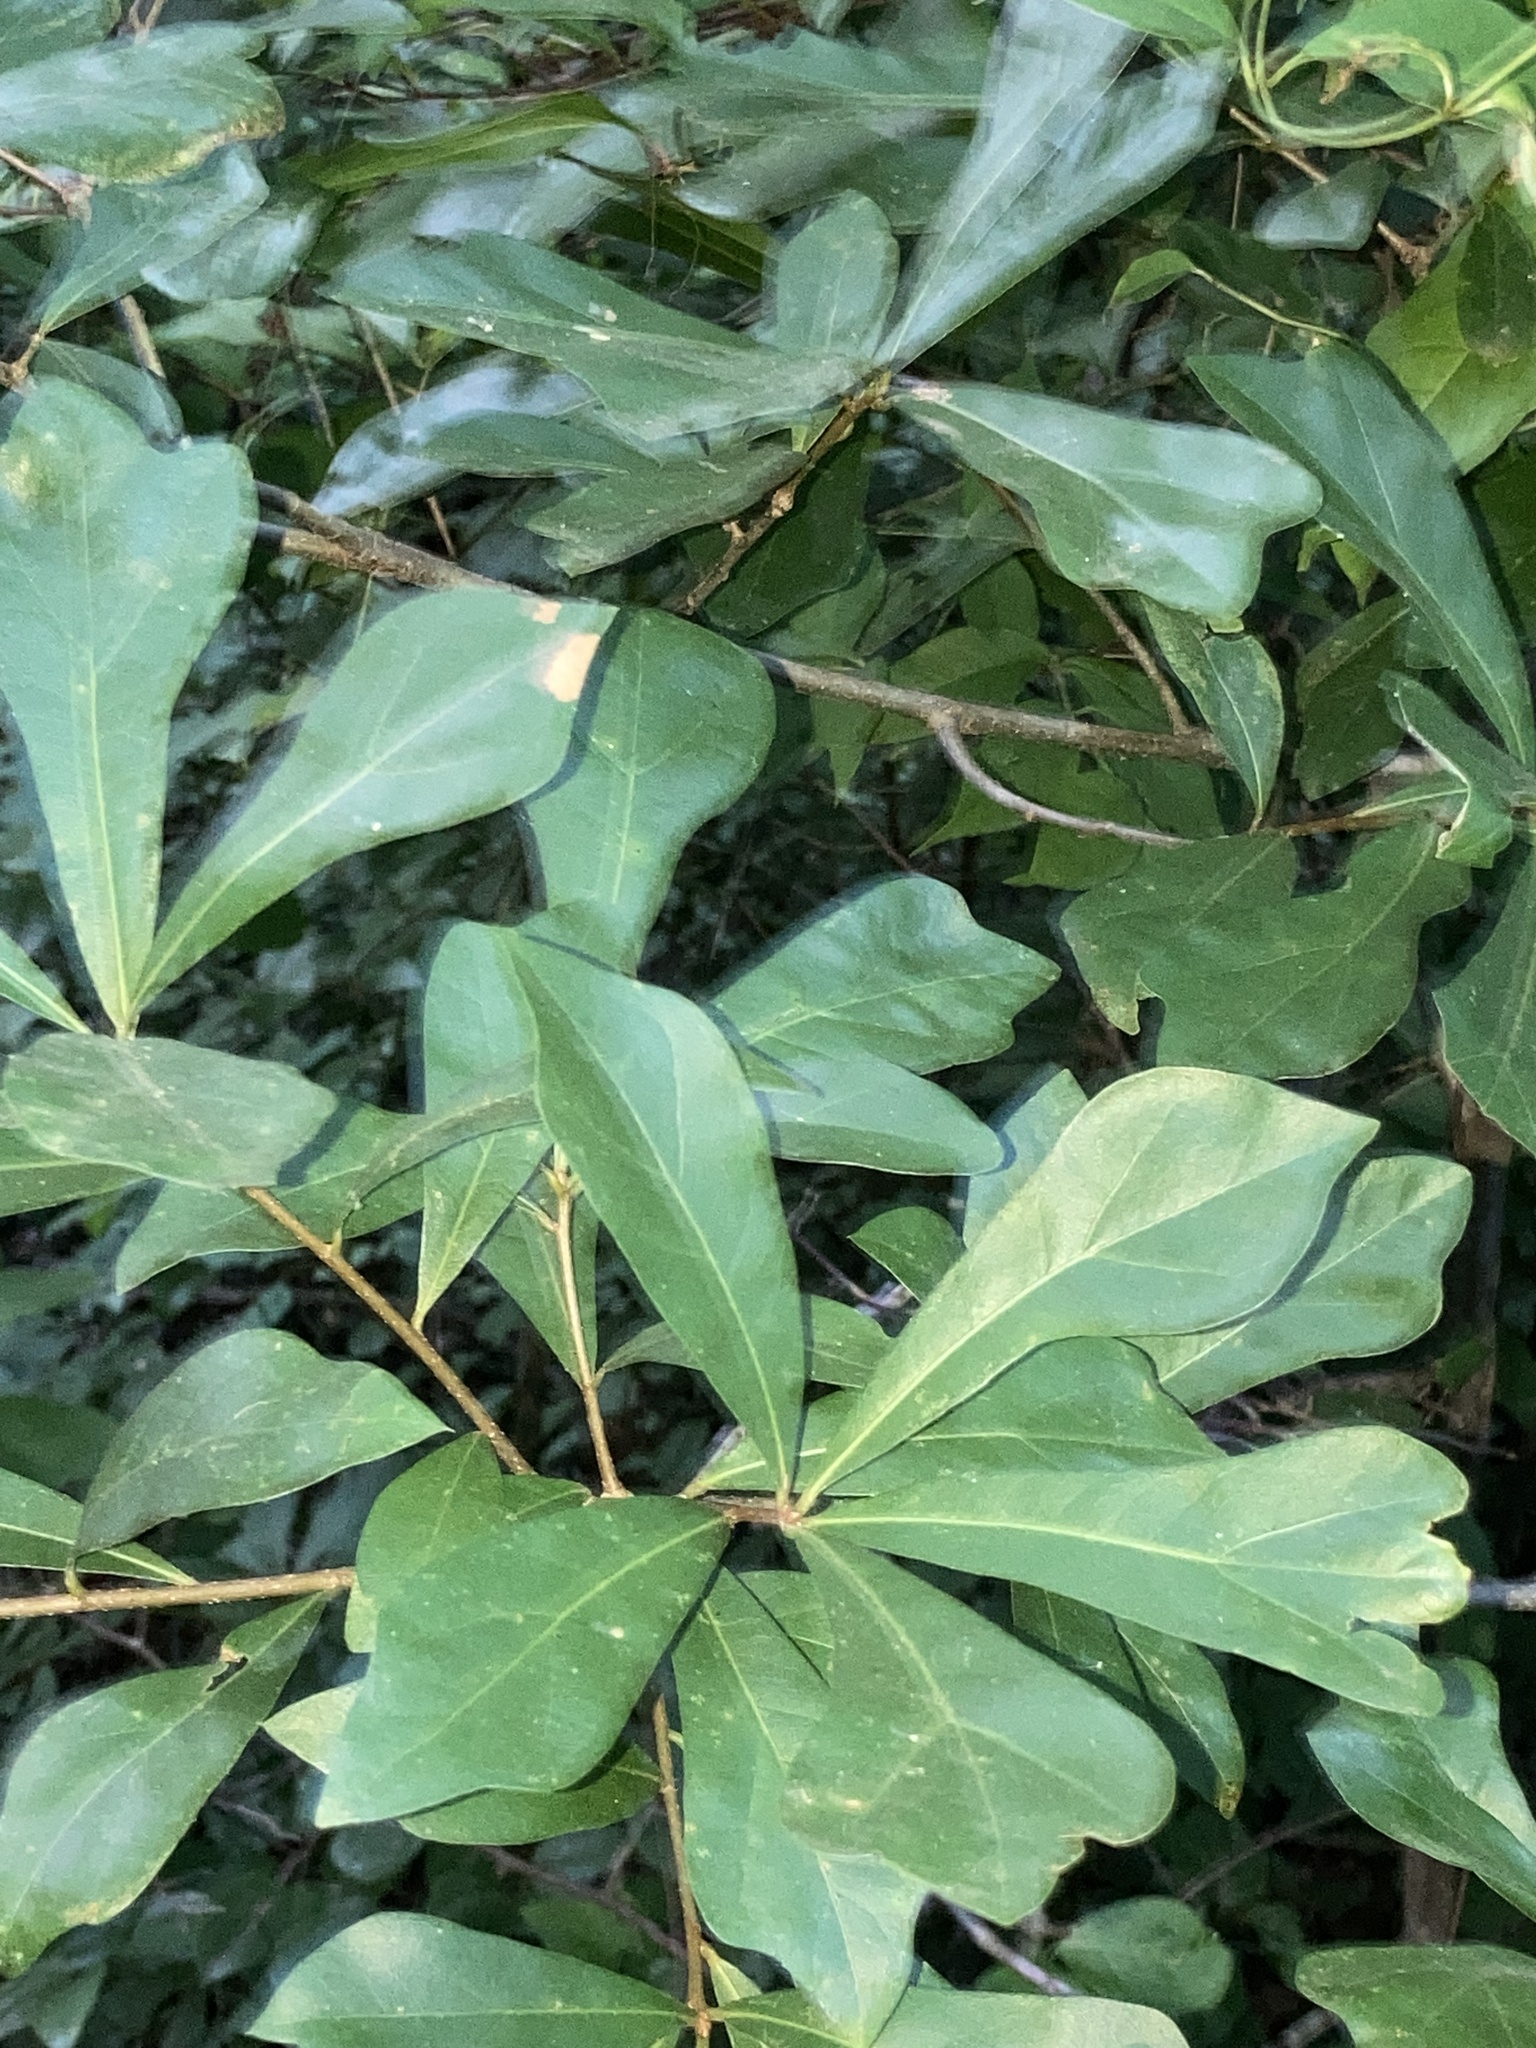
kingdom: Plantae
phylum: Tracheophyta
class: Magnoliopsida
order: Fagales
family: Fagaceae
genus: Quercus
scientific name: Quercus nigra
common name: Water oak
